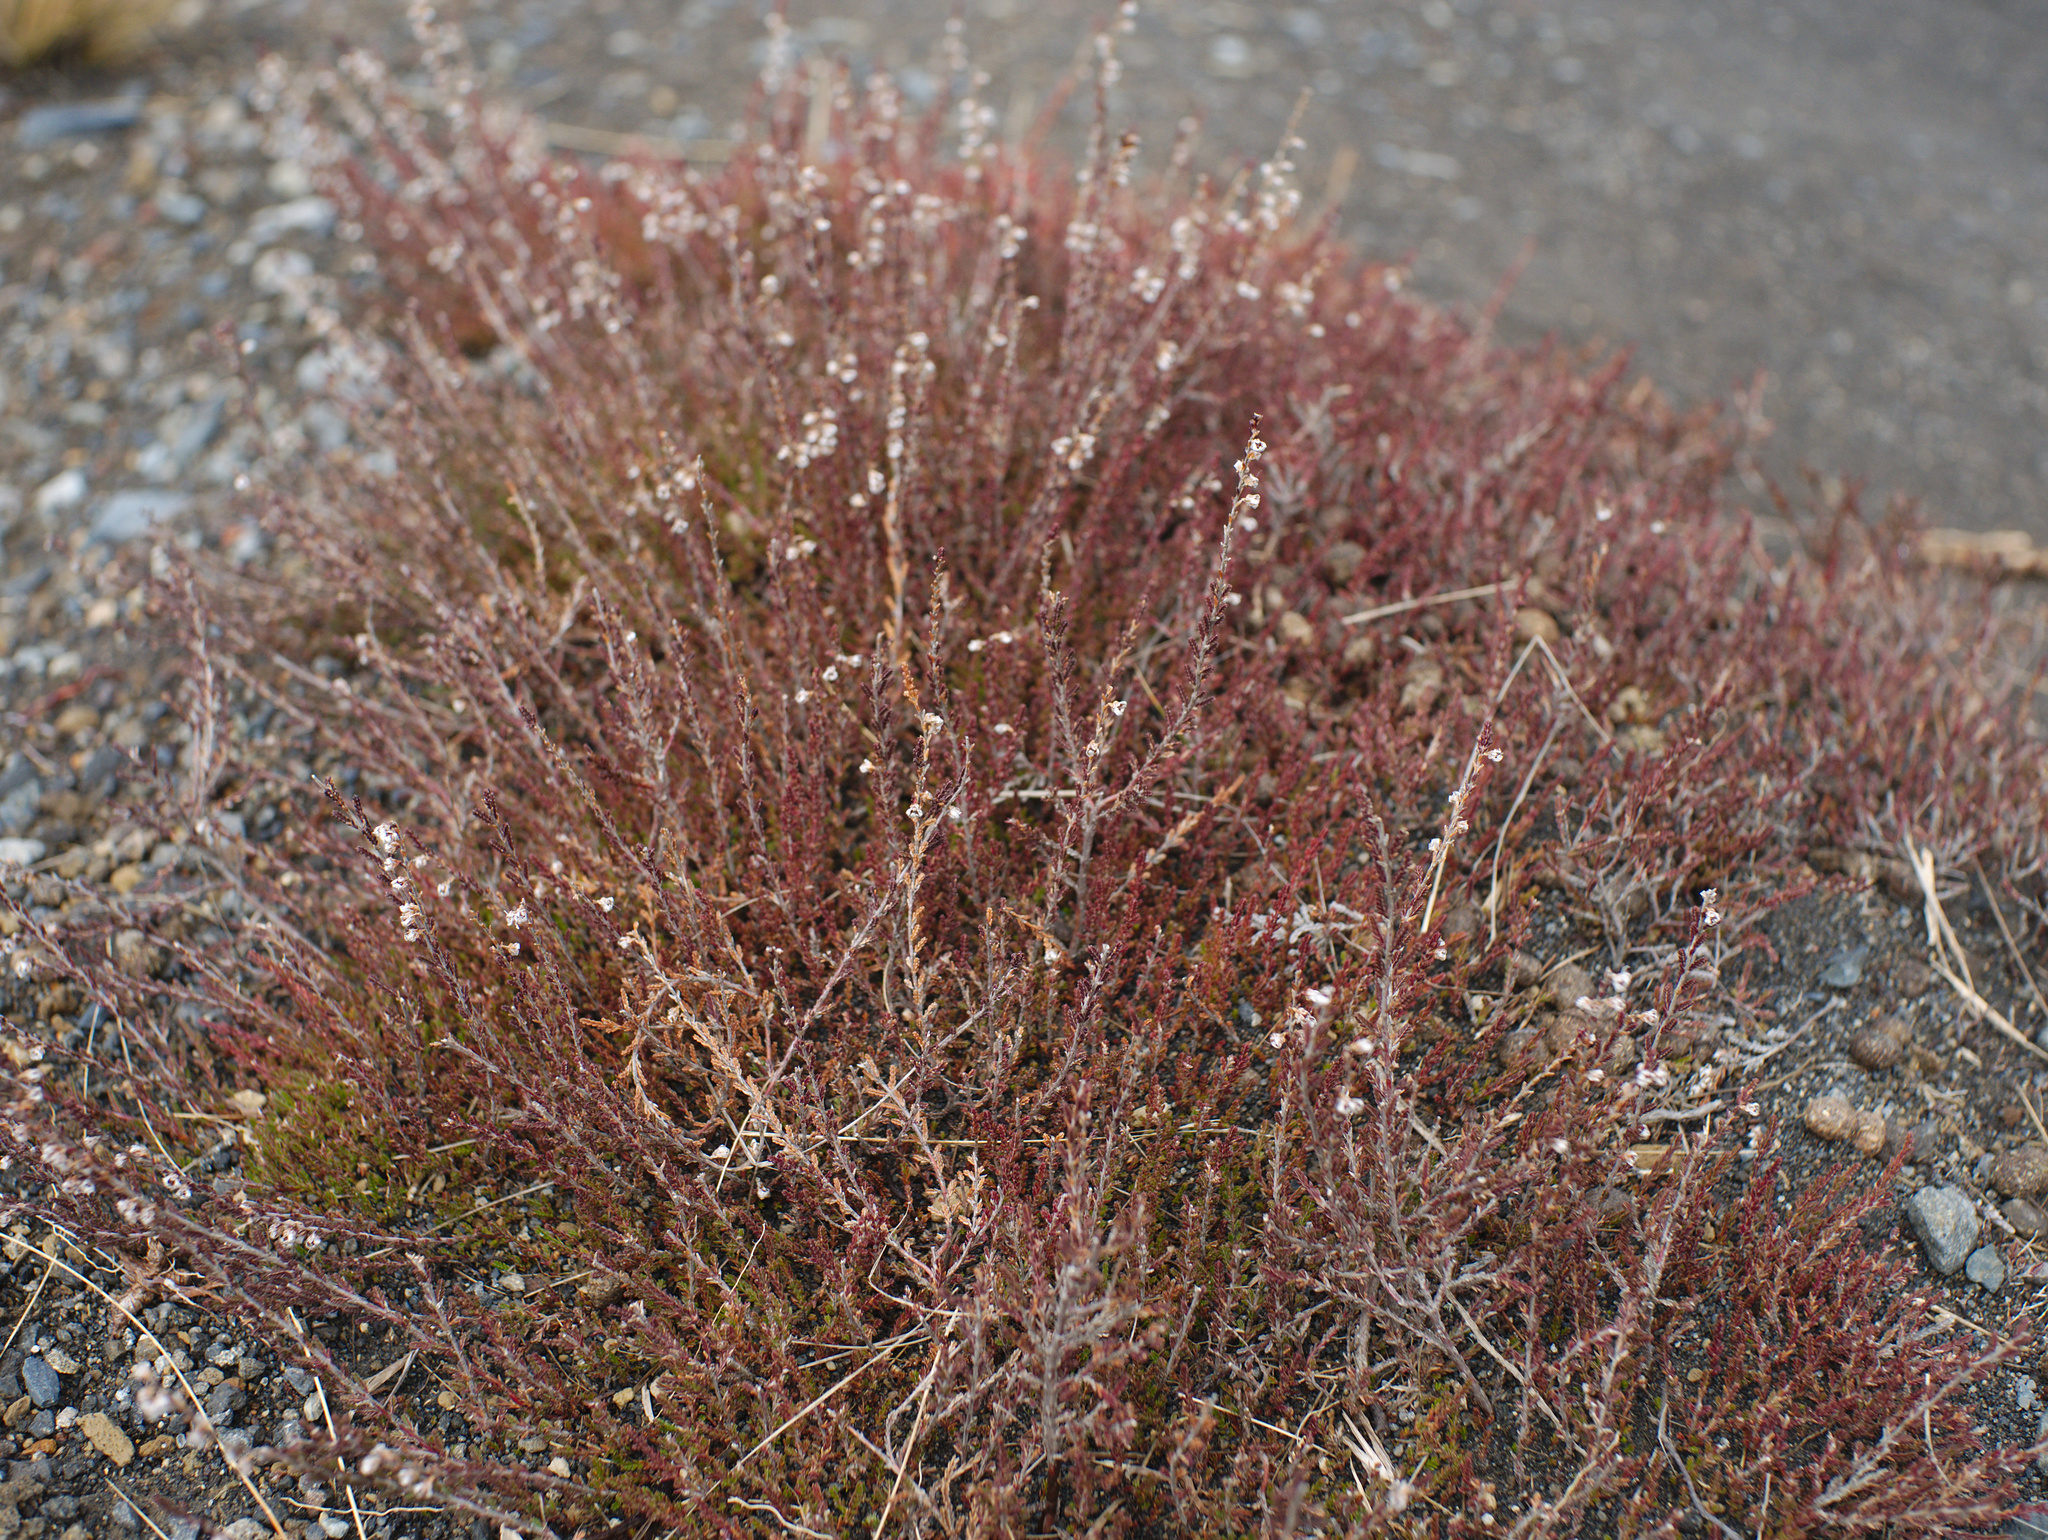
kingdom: Plantae
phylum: Tracheophyta
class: Magnoliopsida
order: Ericales
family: Ericaceae
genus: Calluna
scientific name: Calluna vulgaris
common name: Heather
